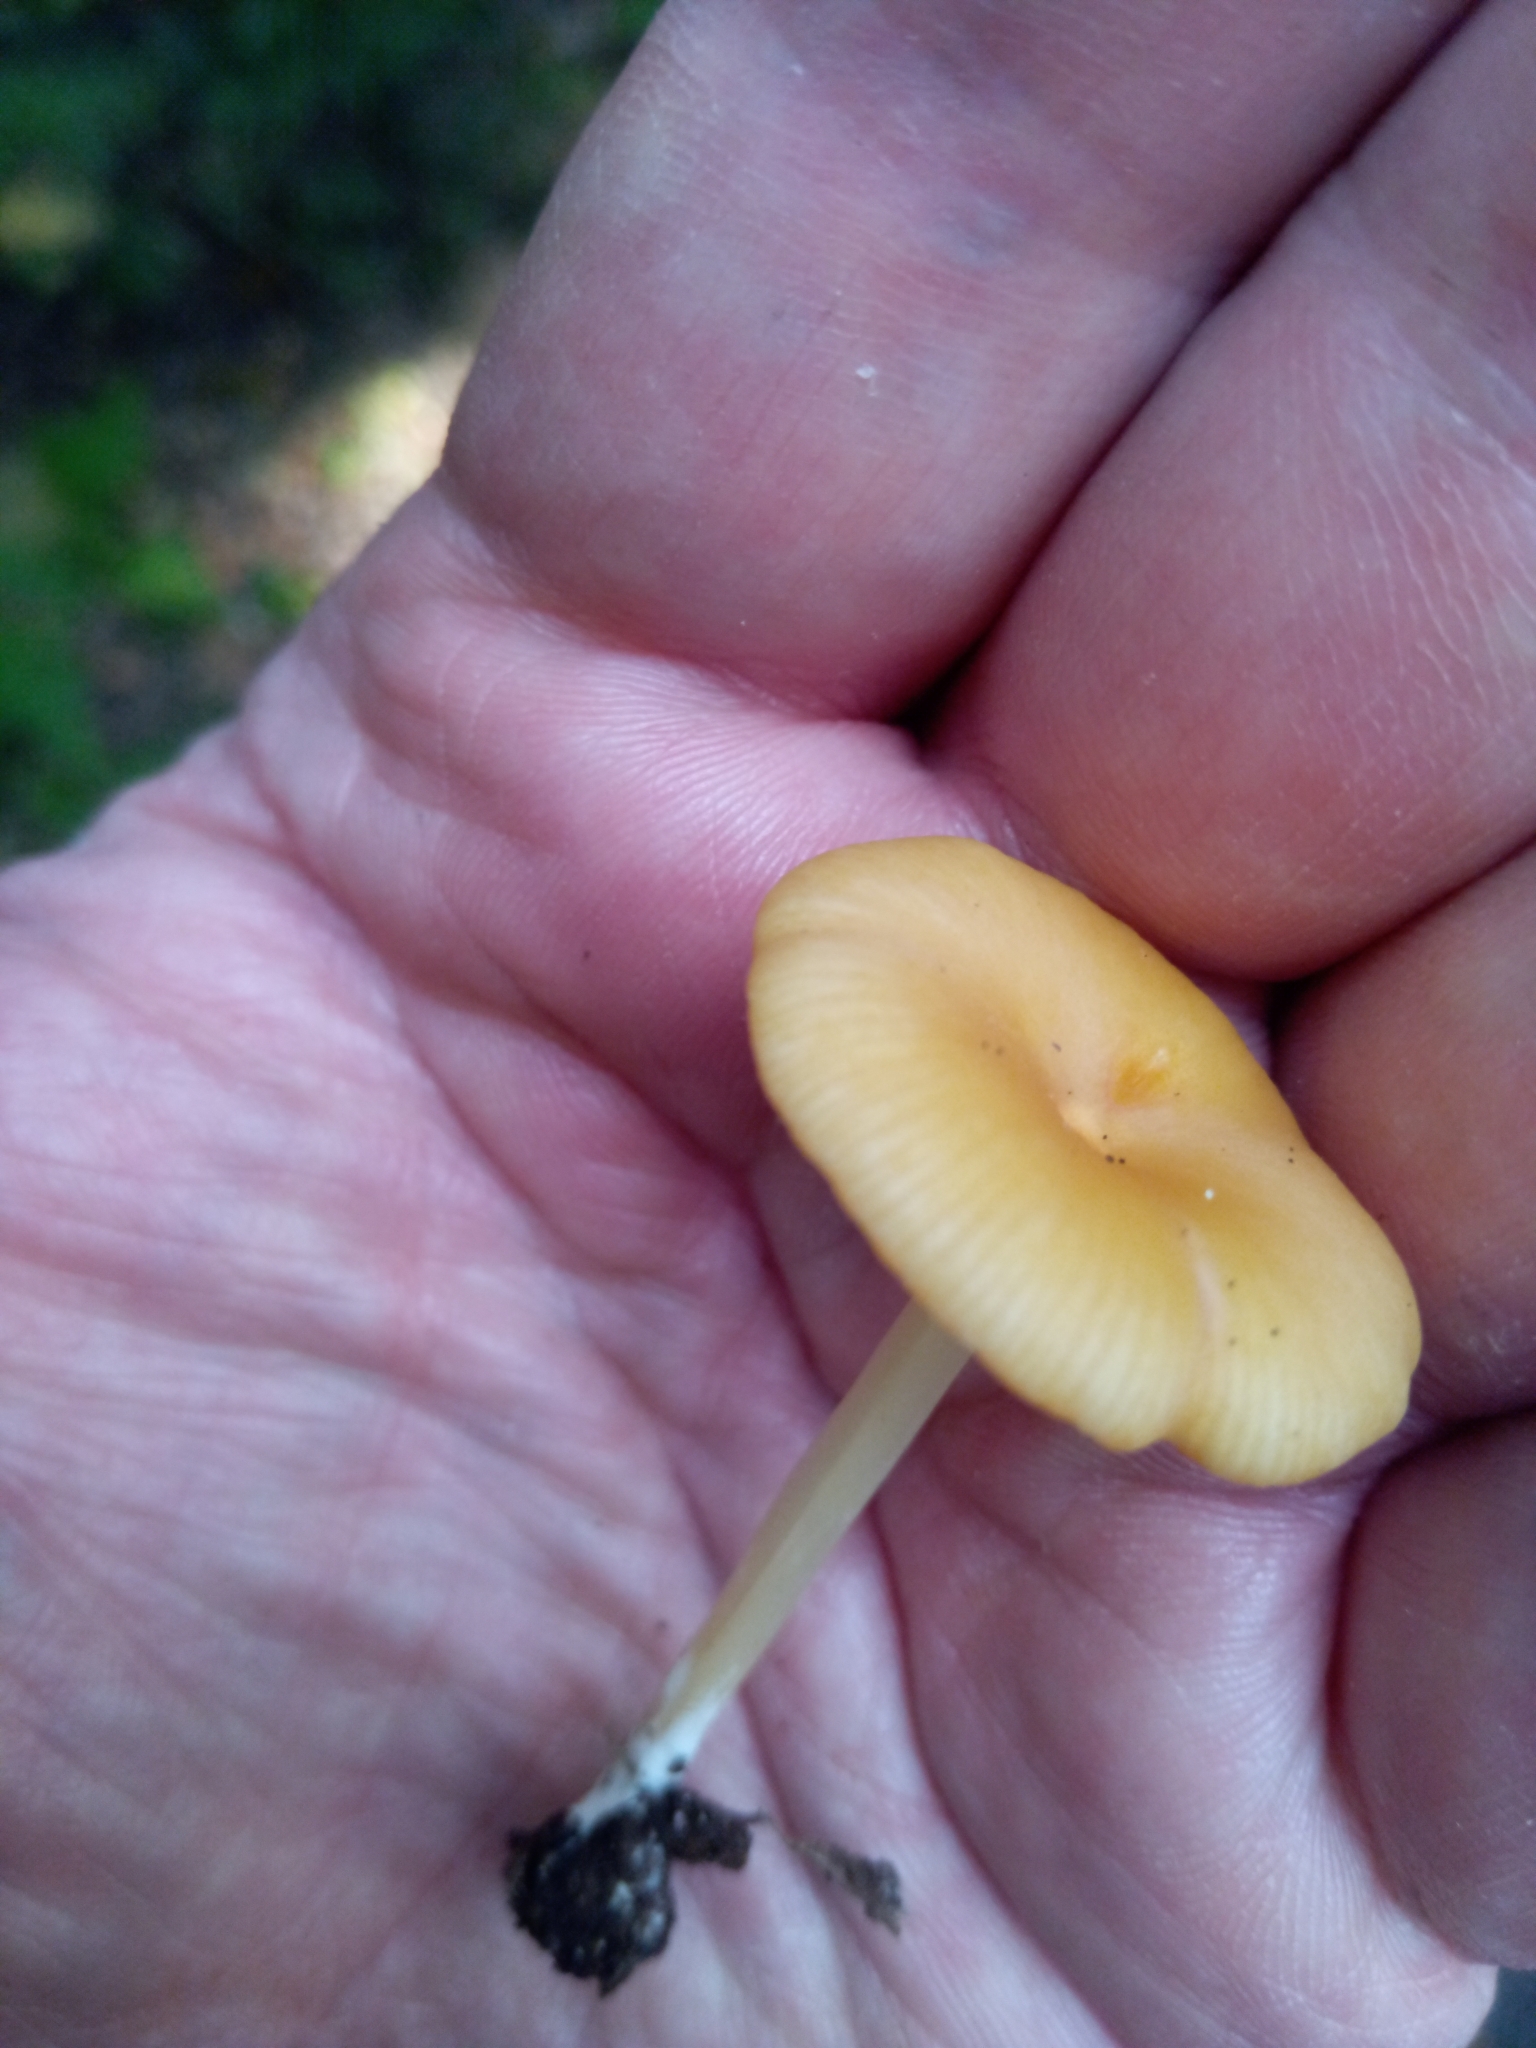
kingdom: Fungi
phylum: Basidiomycota
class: Agaricomycetes
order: Agaricales
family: Entolomataceae
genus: Entoloma
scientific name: Entoloma unicolor
